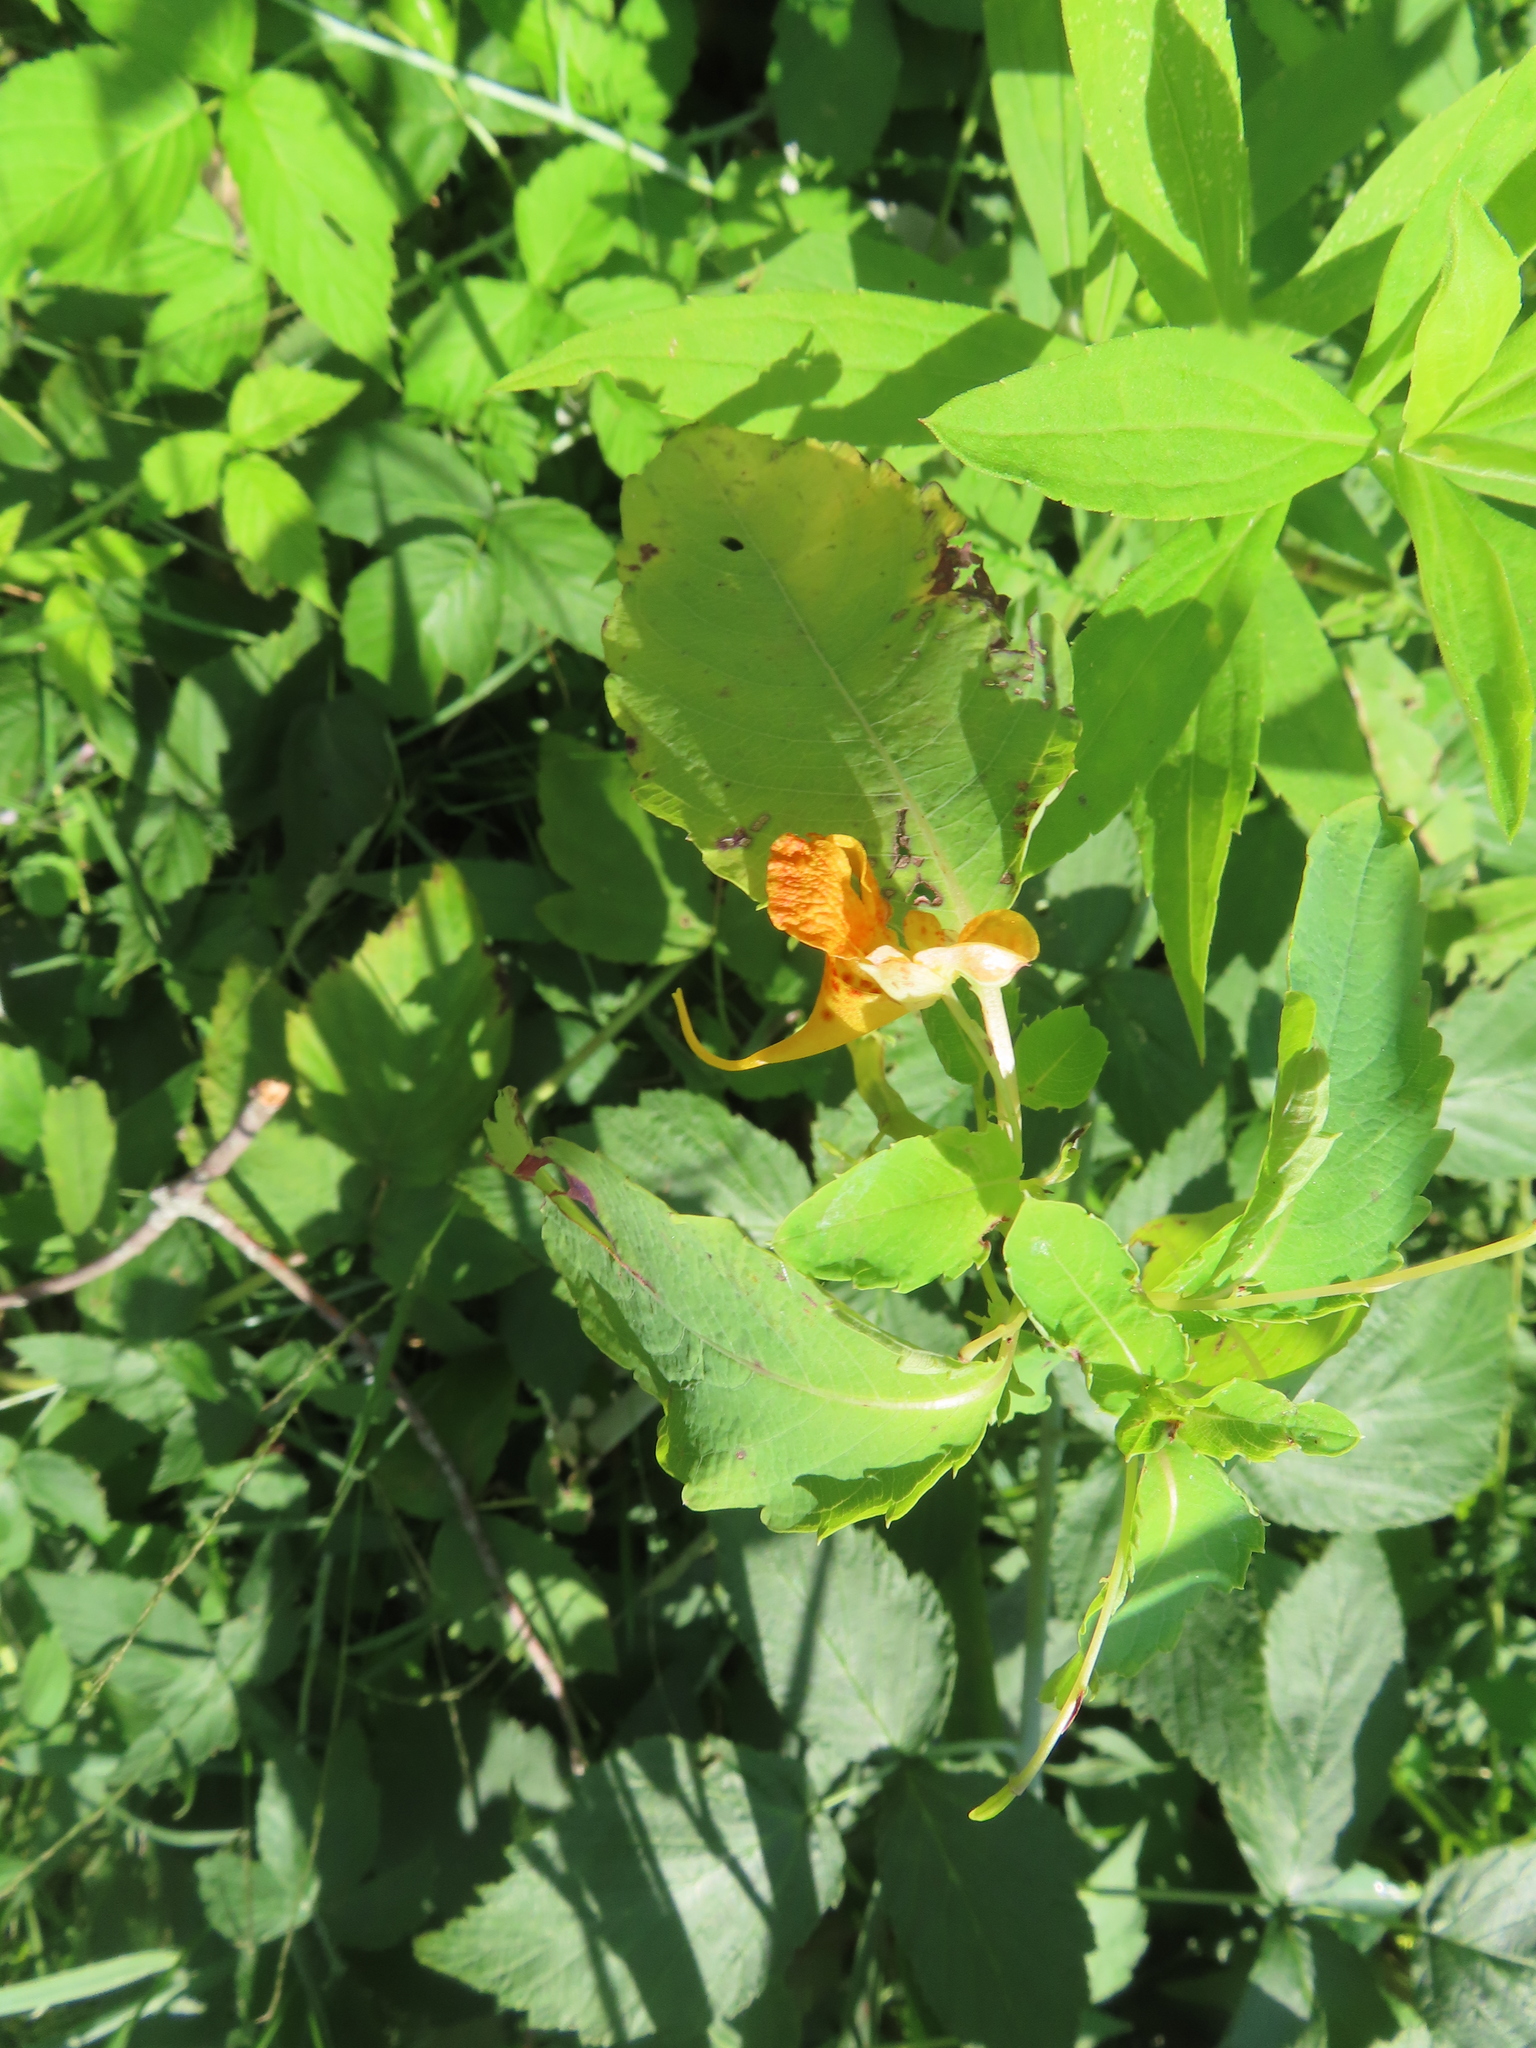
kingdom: Plantae
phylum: Tracheophyta
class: Magnoliopsida
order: Ericales
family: Balsaminaceae
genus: Impatiens
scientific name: Impatiens capensis
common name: Orange balsam
